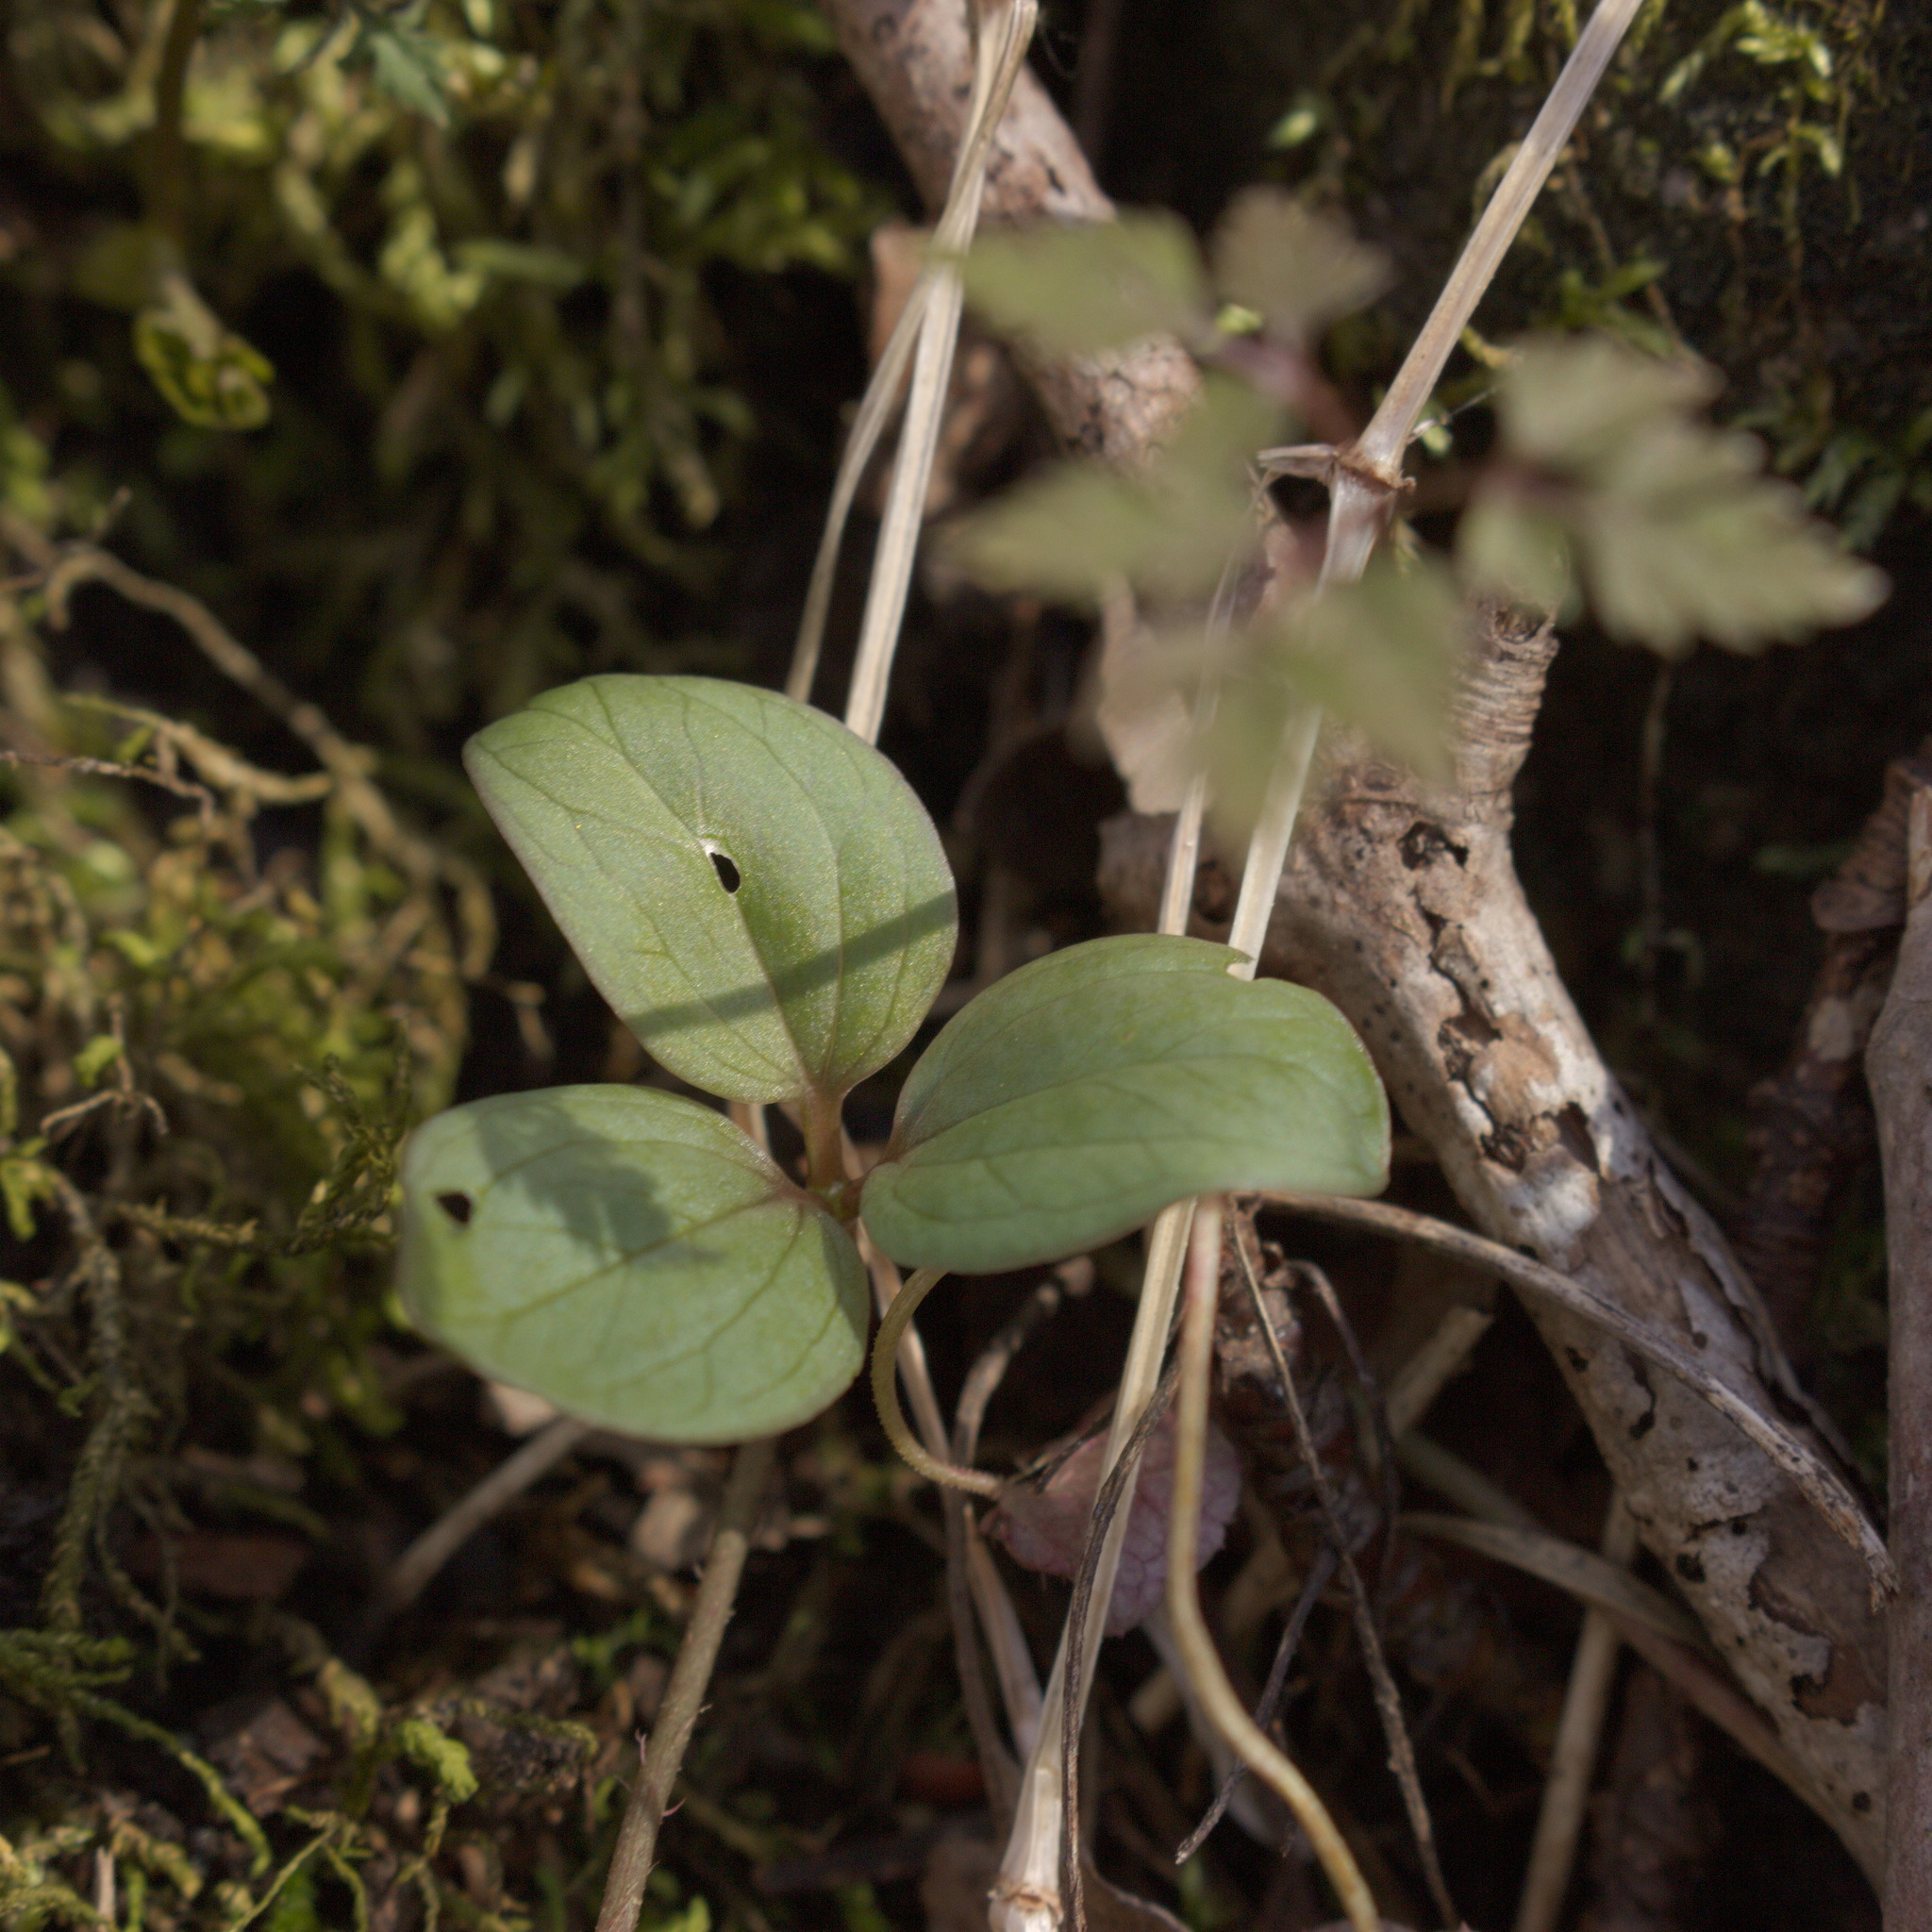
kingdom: Plantae
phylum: Tracheophyta
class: Liliopsida
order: Liliales
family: Melanthiaceae
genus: Trillium
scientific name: Trillium nivale
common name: Dwarf white trillium
